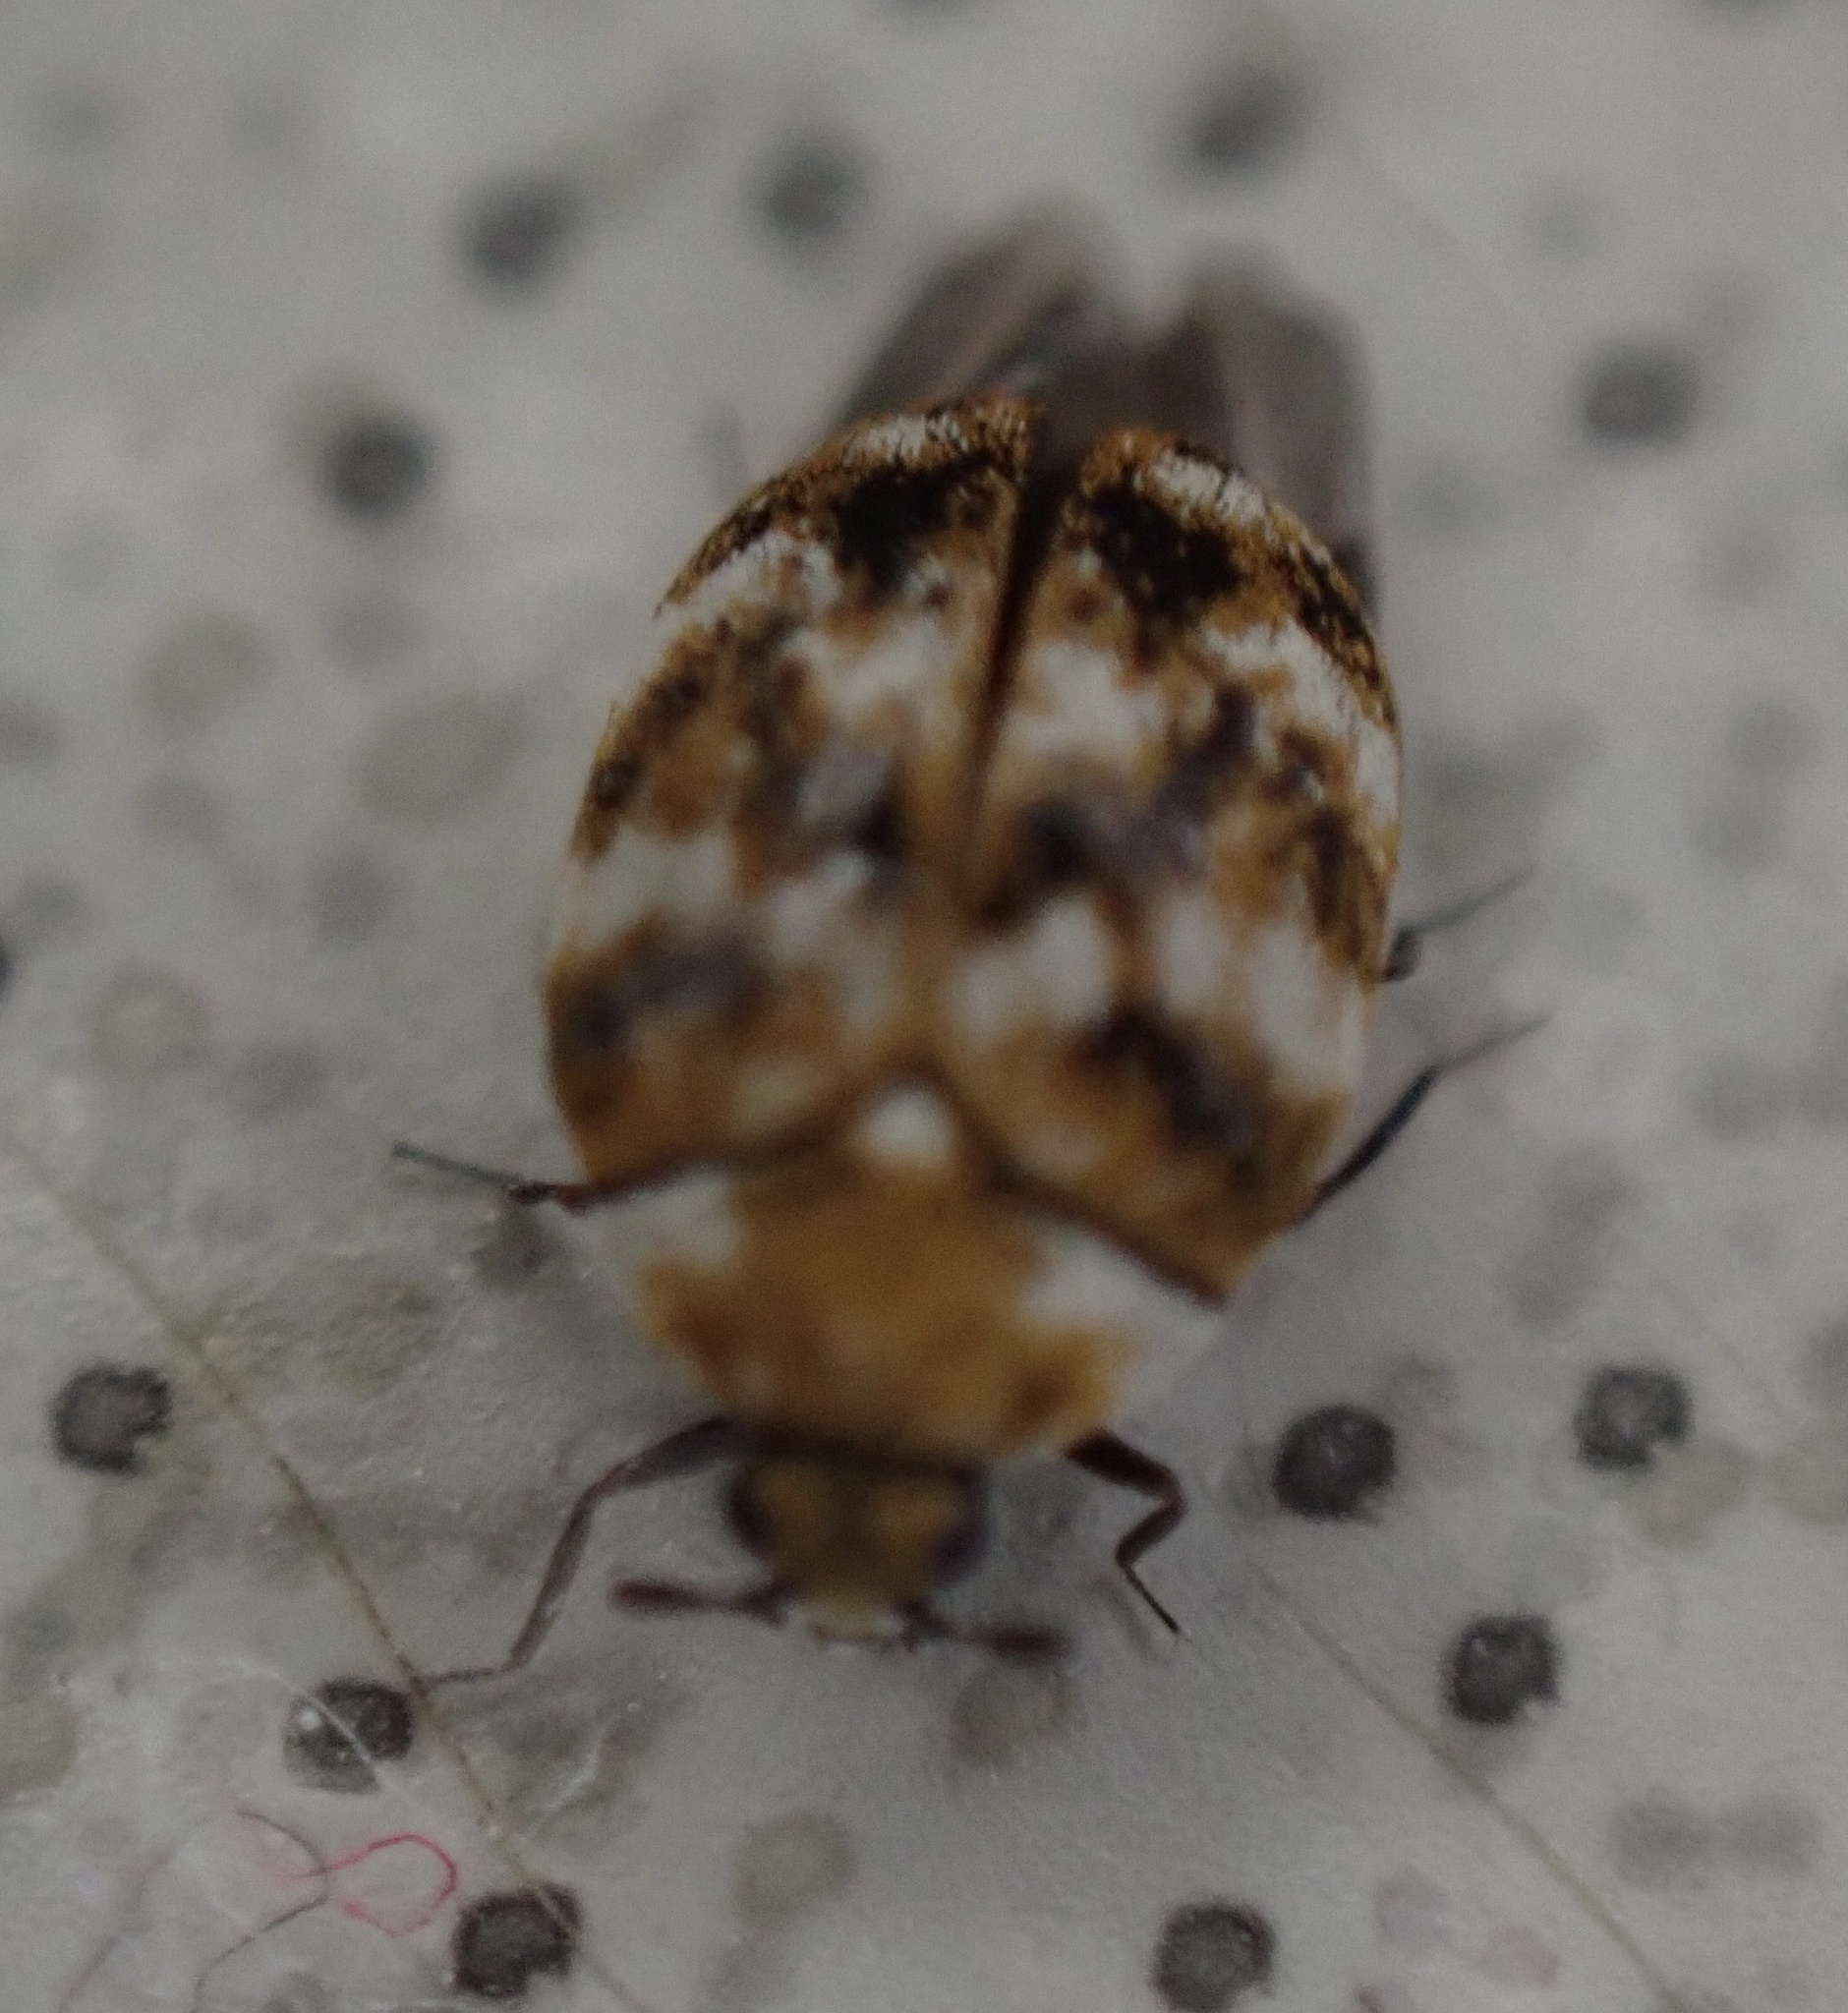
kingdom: Animalia
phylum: Arthropoda
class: Insecta
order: Coleoptera
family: Dermestidae
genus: Anthrenus
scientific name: Anthrenus verbasci
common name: Varied carpet beetle
